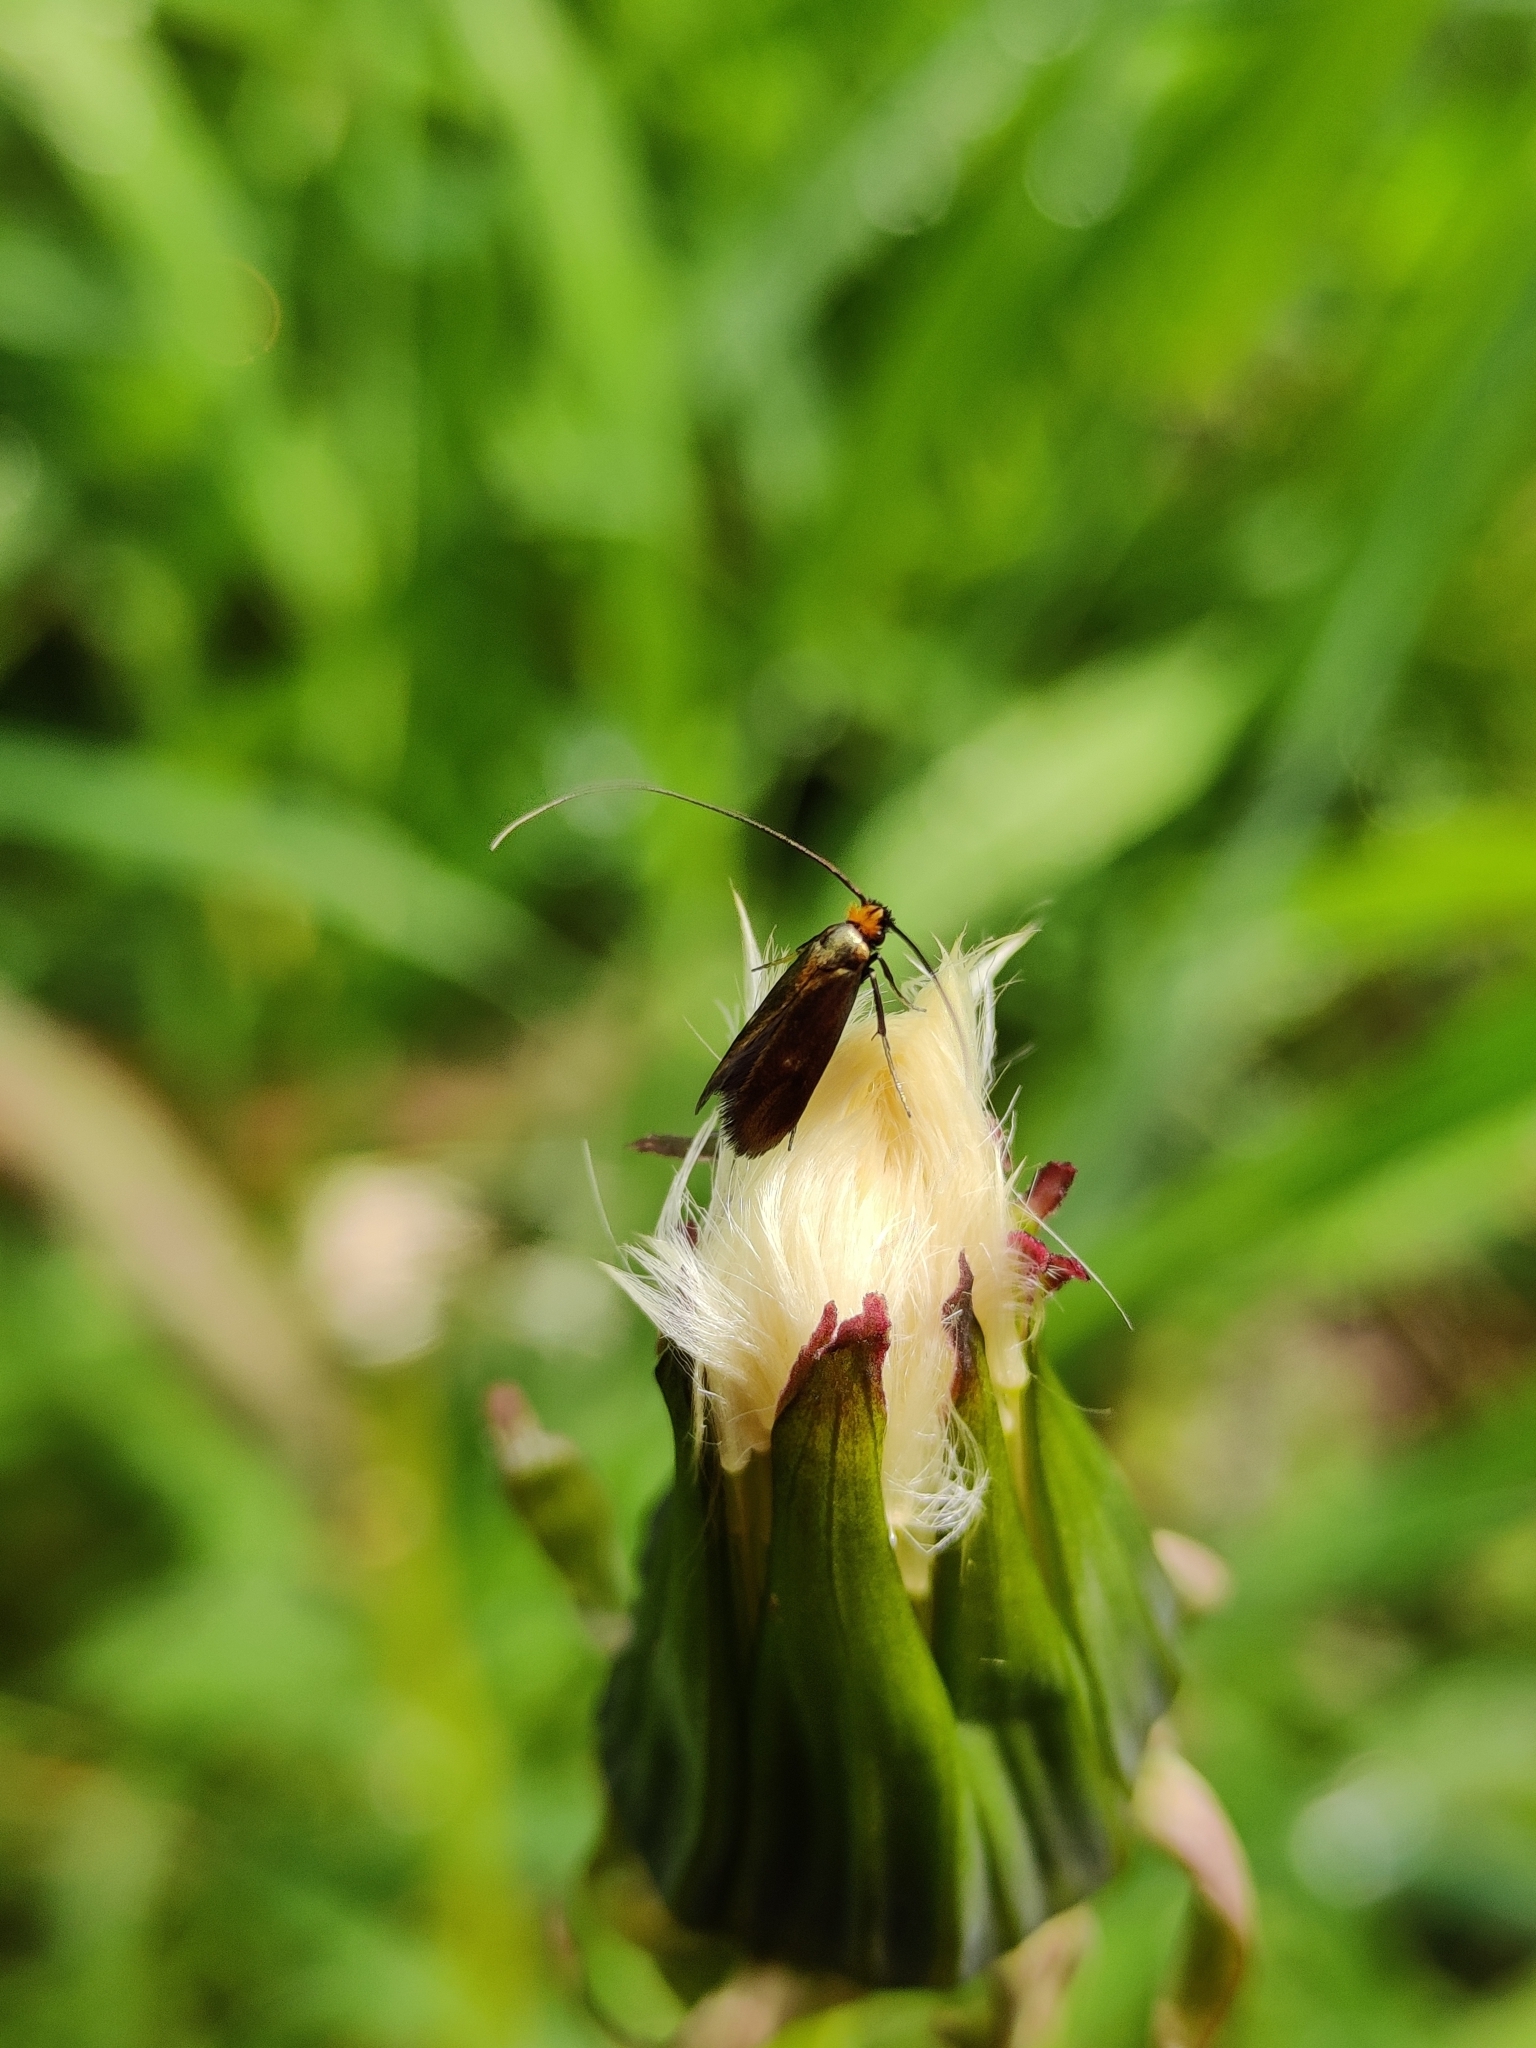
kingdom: Animalia
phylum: Arthropoda
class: Insecta
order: Lepidoptera
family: Adelidae
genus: Cauchas
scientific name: Cauchas rufimitrella
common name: Meadow long-horn
